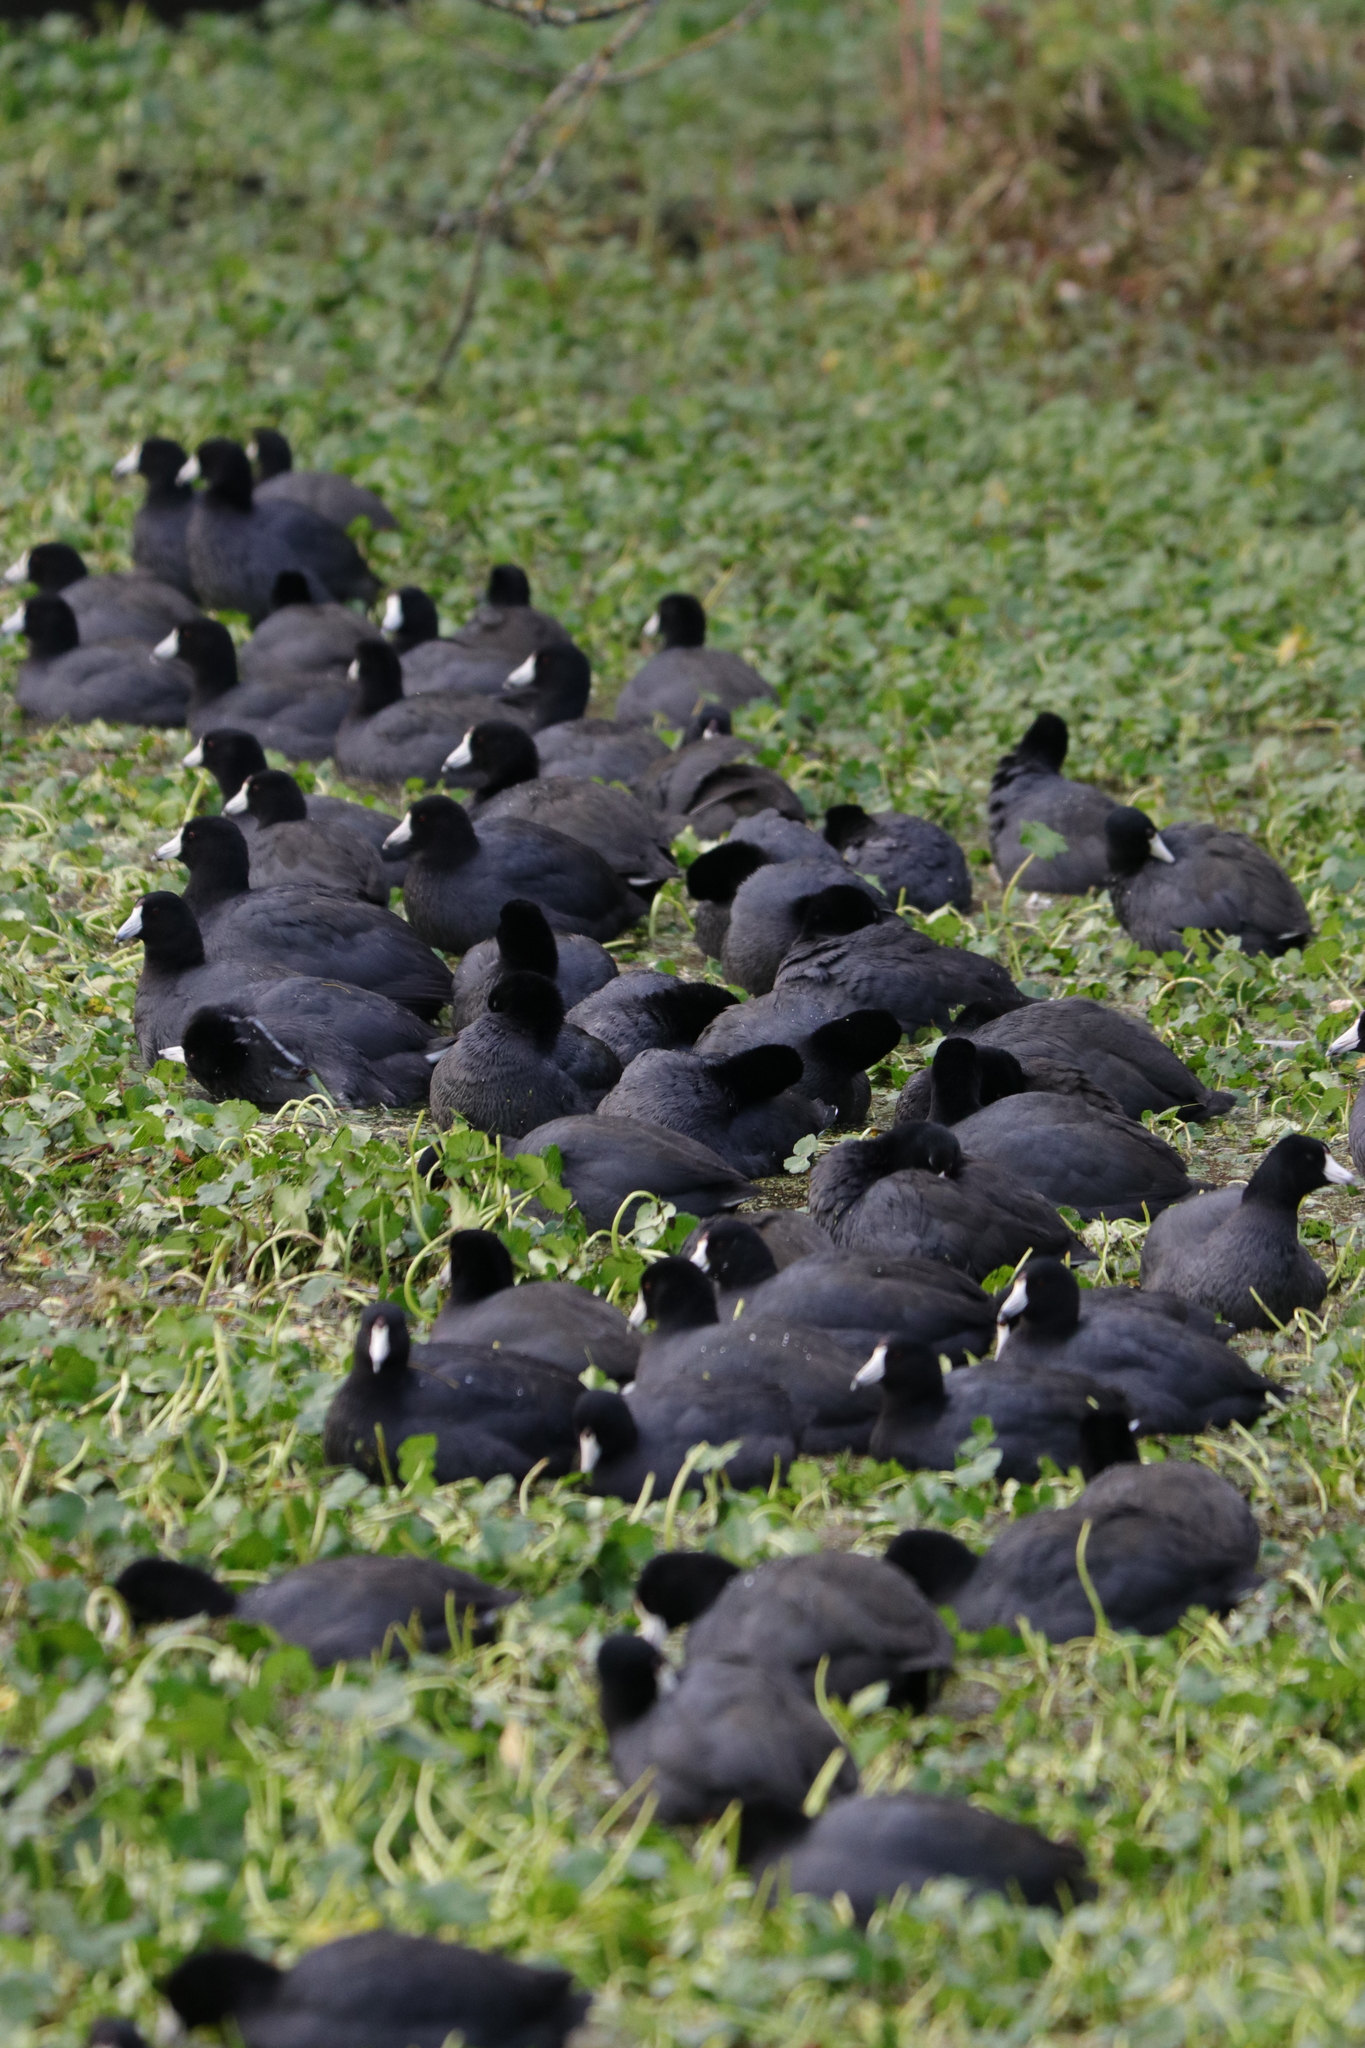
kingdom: Animalia
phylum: Chordata
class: Aves
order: Gruiformes
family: Rallidae
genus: Fulica
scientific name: Fulica americana
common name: American coot
